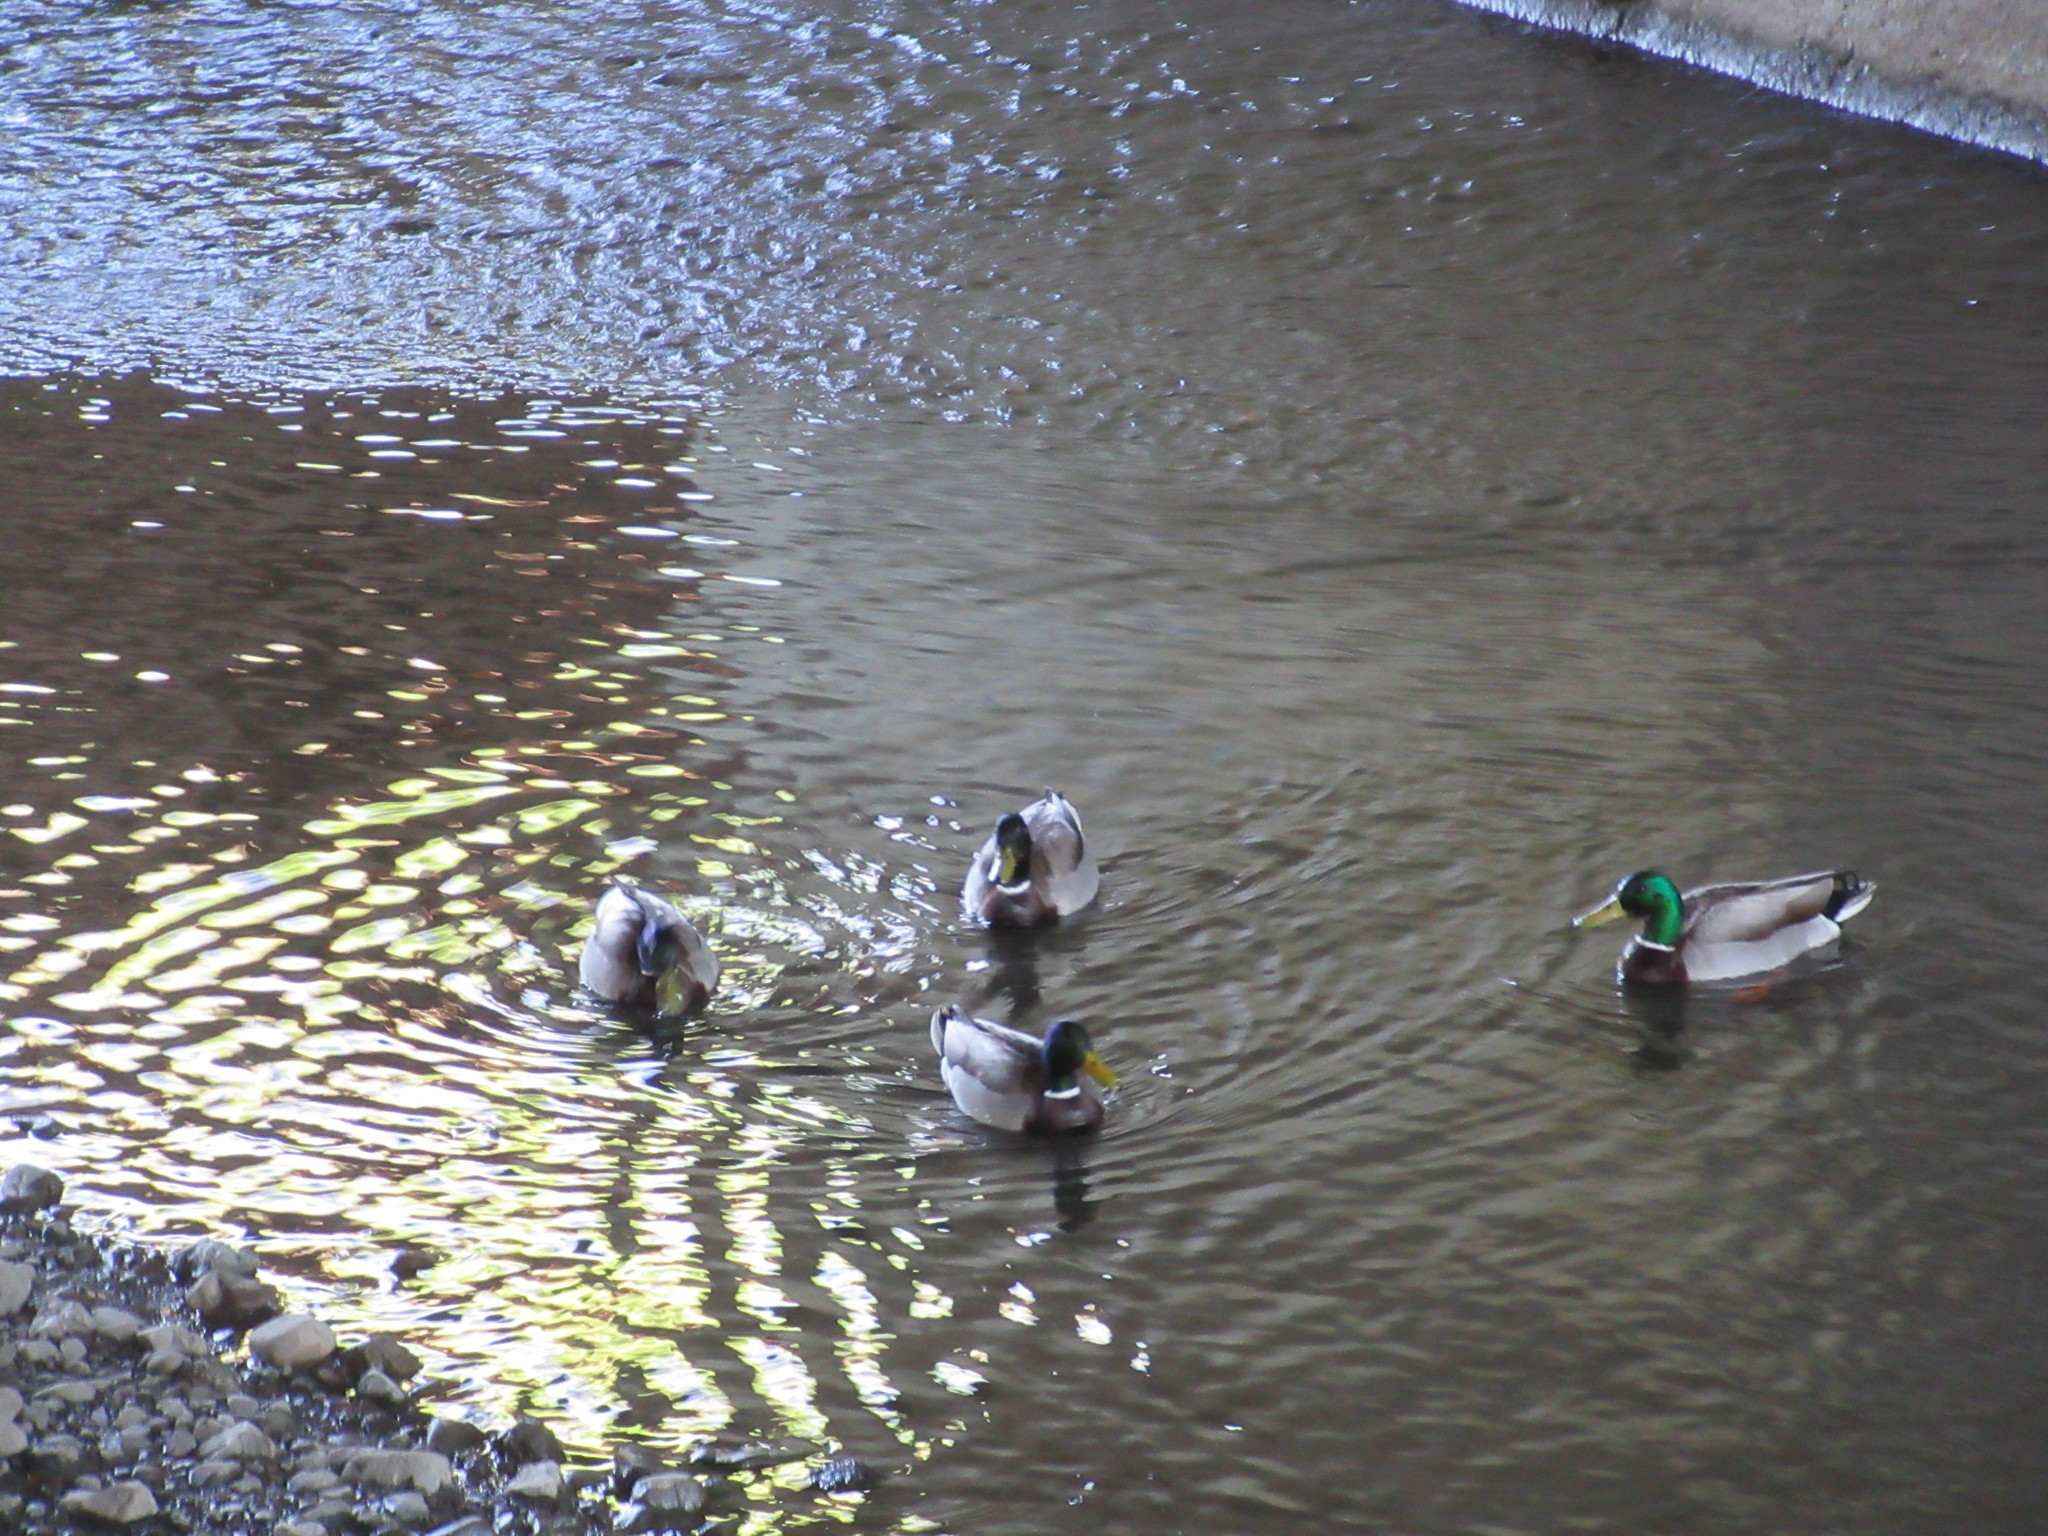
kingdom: Animalia
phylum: Chordata
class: Aves
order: Anseriformes
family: Anatidae
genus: Anas
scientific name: Anas platyrhynchos
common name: Mallard
